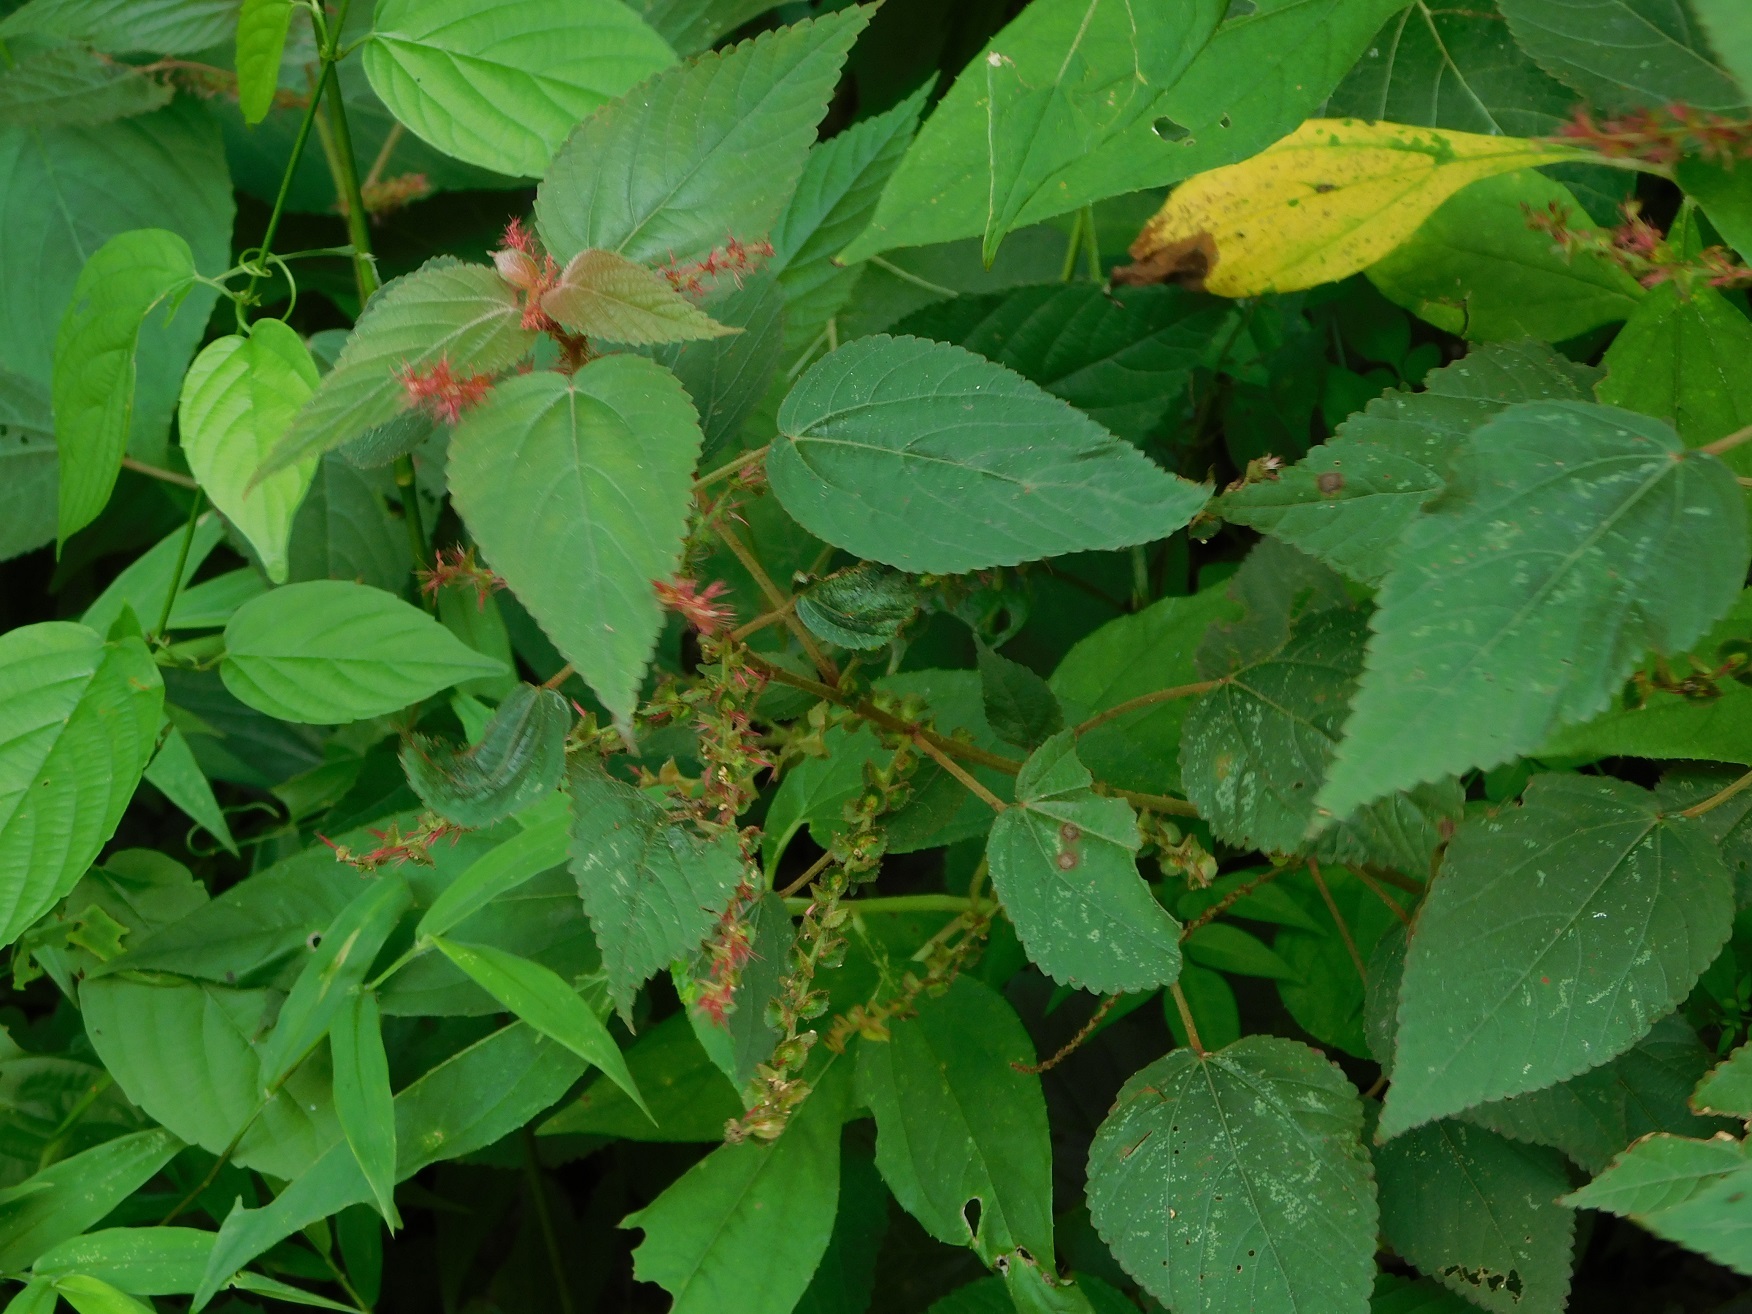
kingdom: Plantae
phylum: Tracheophyta
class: Magnoliopsida
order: Malpighiales
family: Euphorbiaceae
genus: Acalypha
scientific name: Acalypha chiapensis
